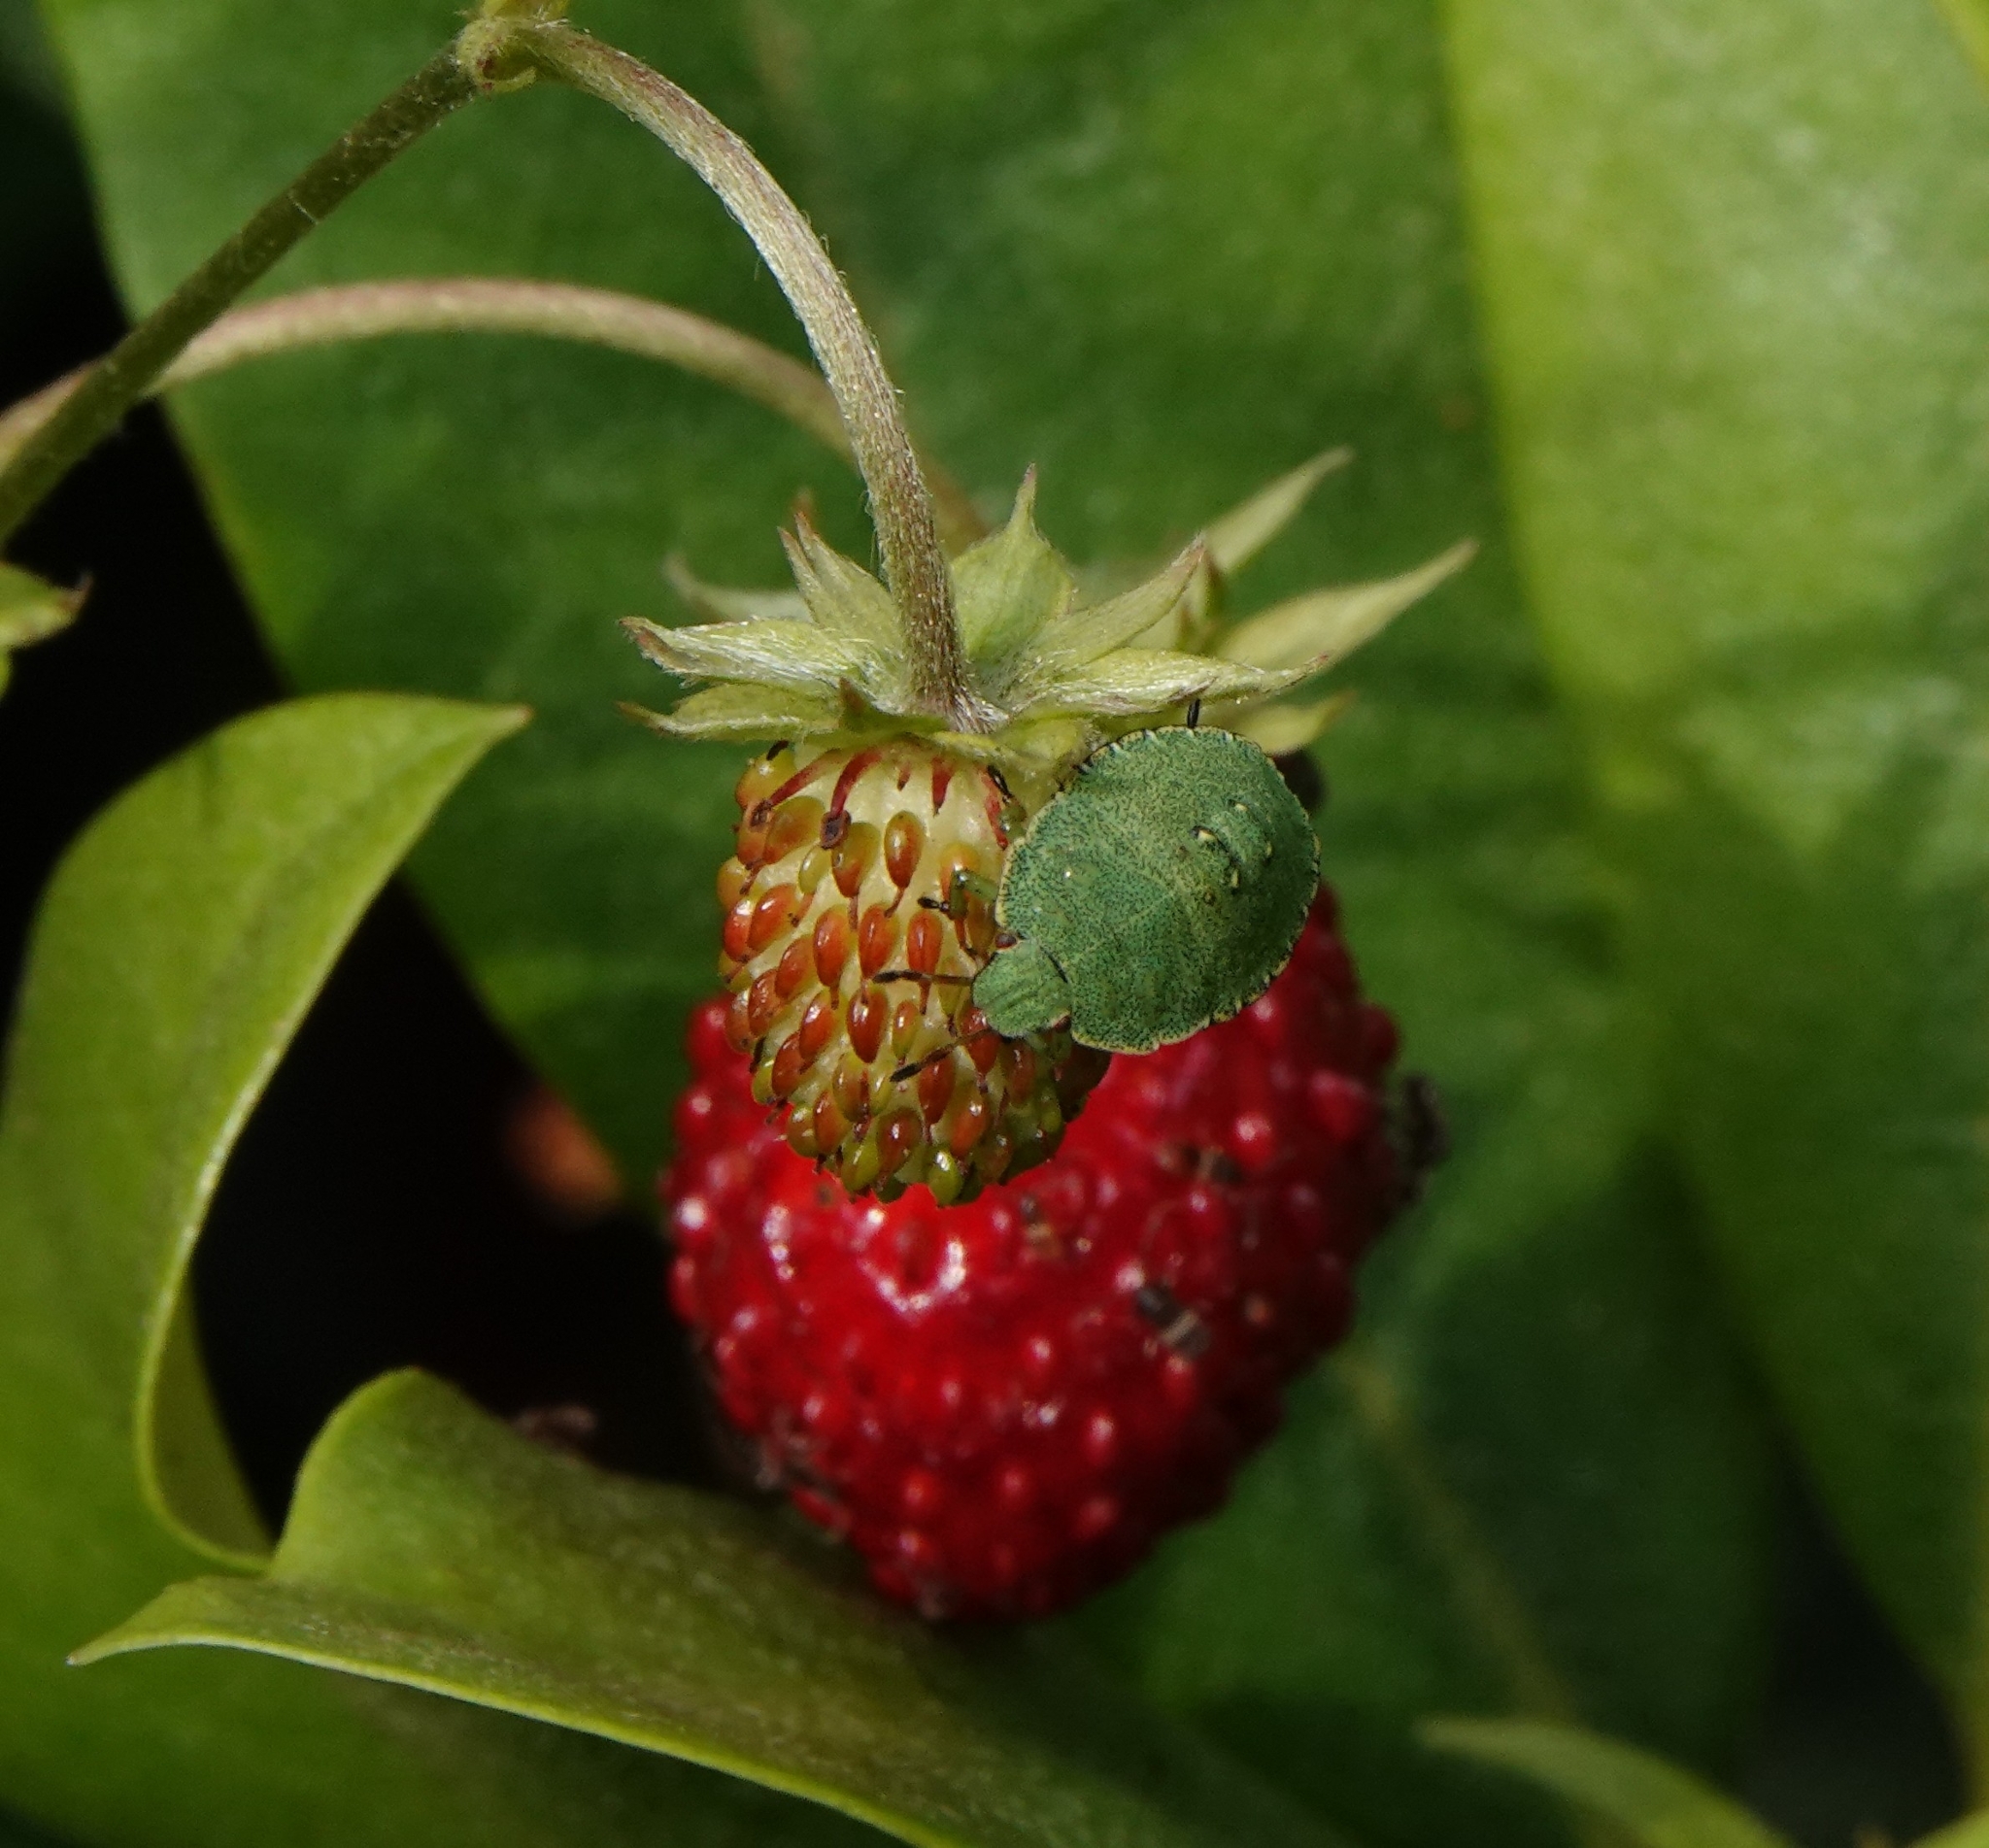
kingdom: Animalia
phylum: Arthropoda
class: Insecta
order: Hemiptera
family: Pentatomidae
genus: Palomena
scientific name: Palomena prasina
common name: Green shieldbug
